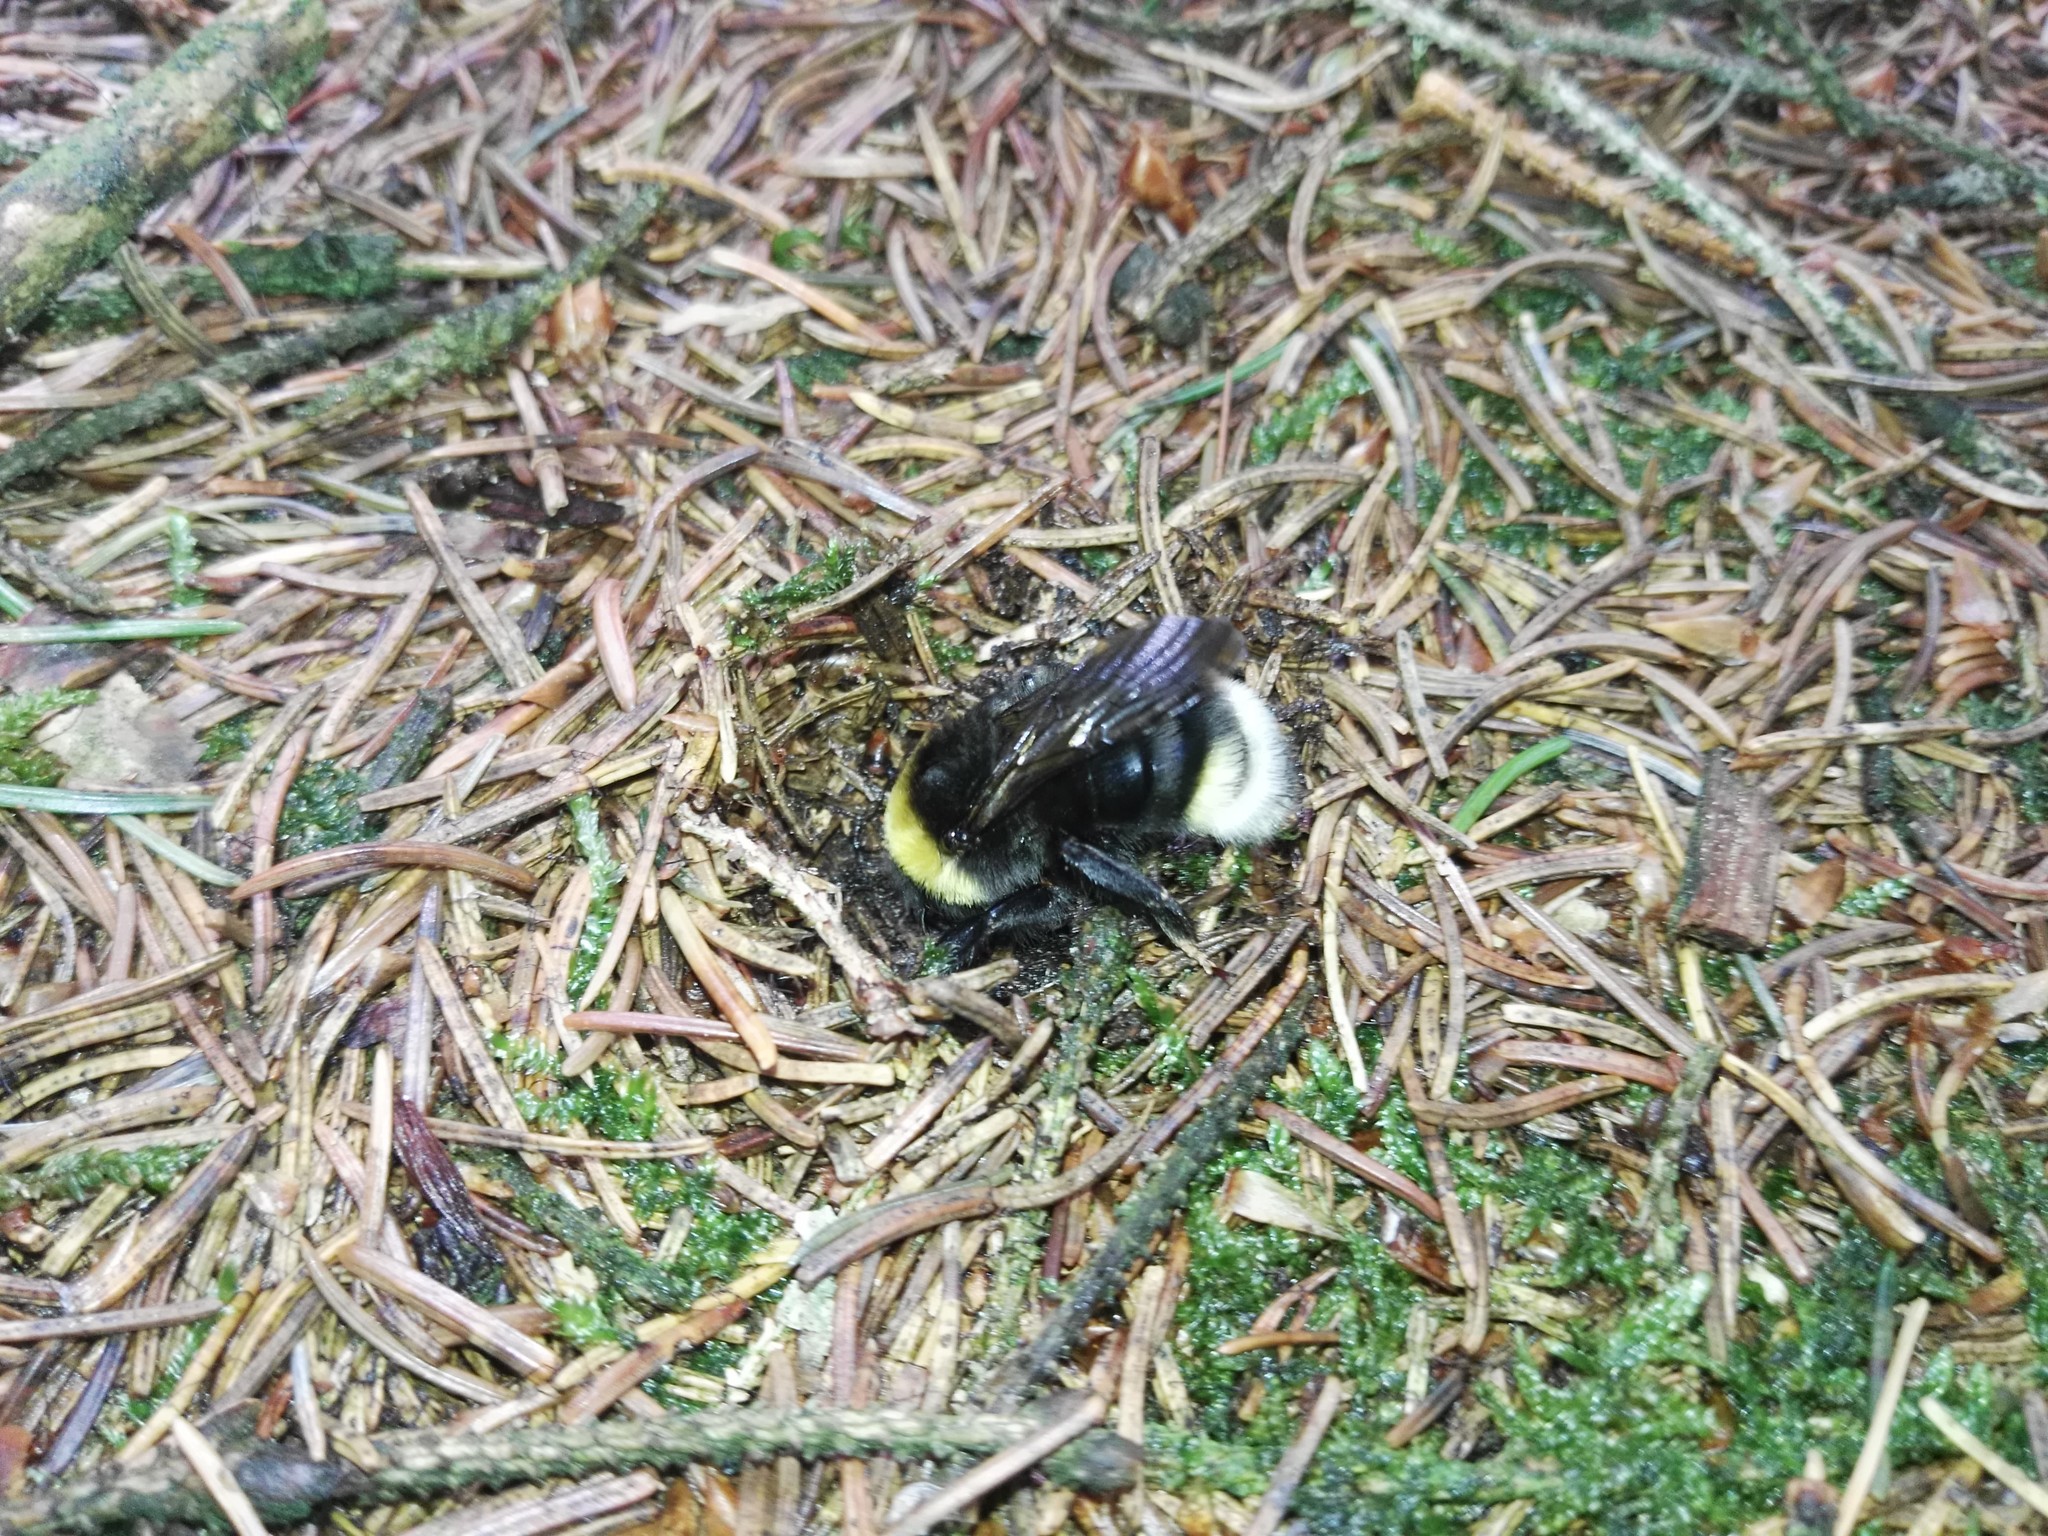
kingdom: Animalia
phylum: Arthropoda
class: Insecta
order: Hymenoptera
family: Apidae
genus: Bombus
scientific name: Bombus bohemicus
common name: Gypsy cuckoo bee
